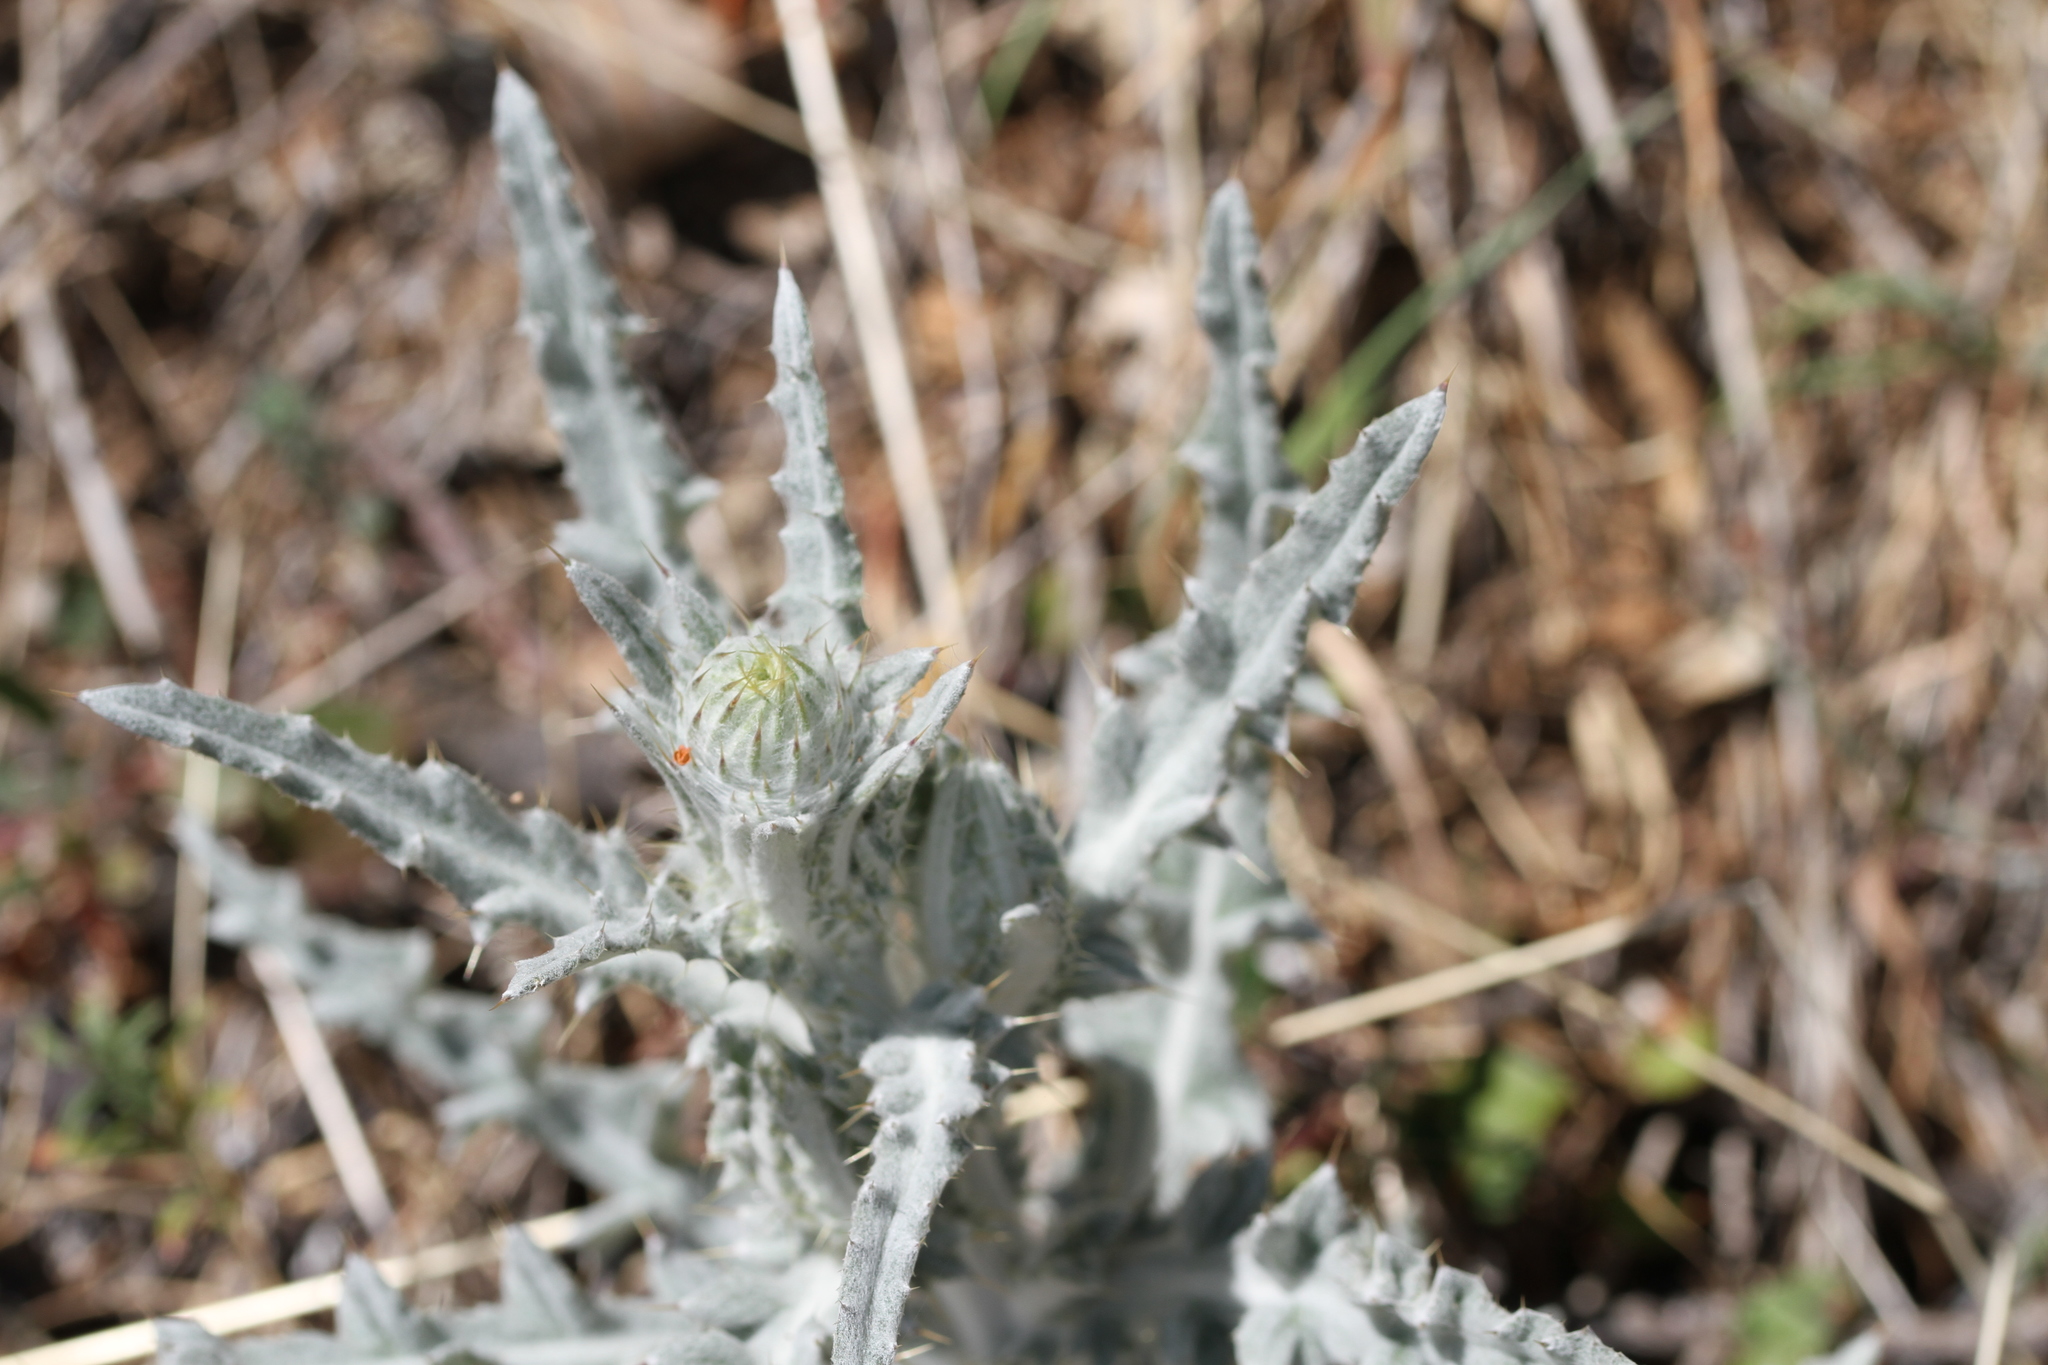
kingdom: Plantae
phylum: Tracheophyta
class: Magnoliopsida
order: Asterales
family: Asteraceae
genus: Cirsium
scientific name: Cirsium occidentale
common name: Western thistle
